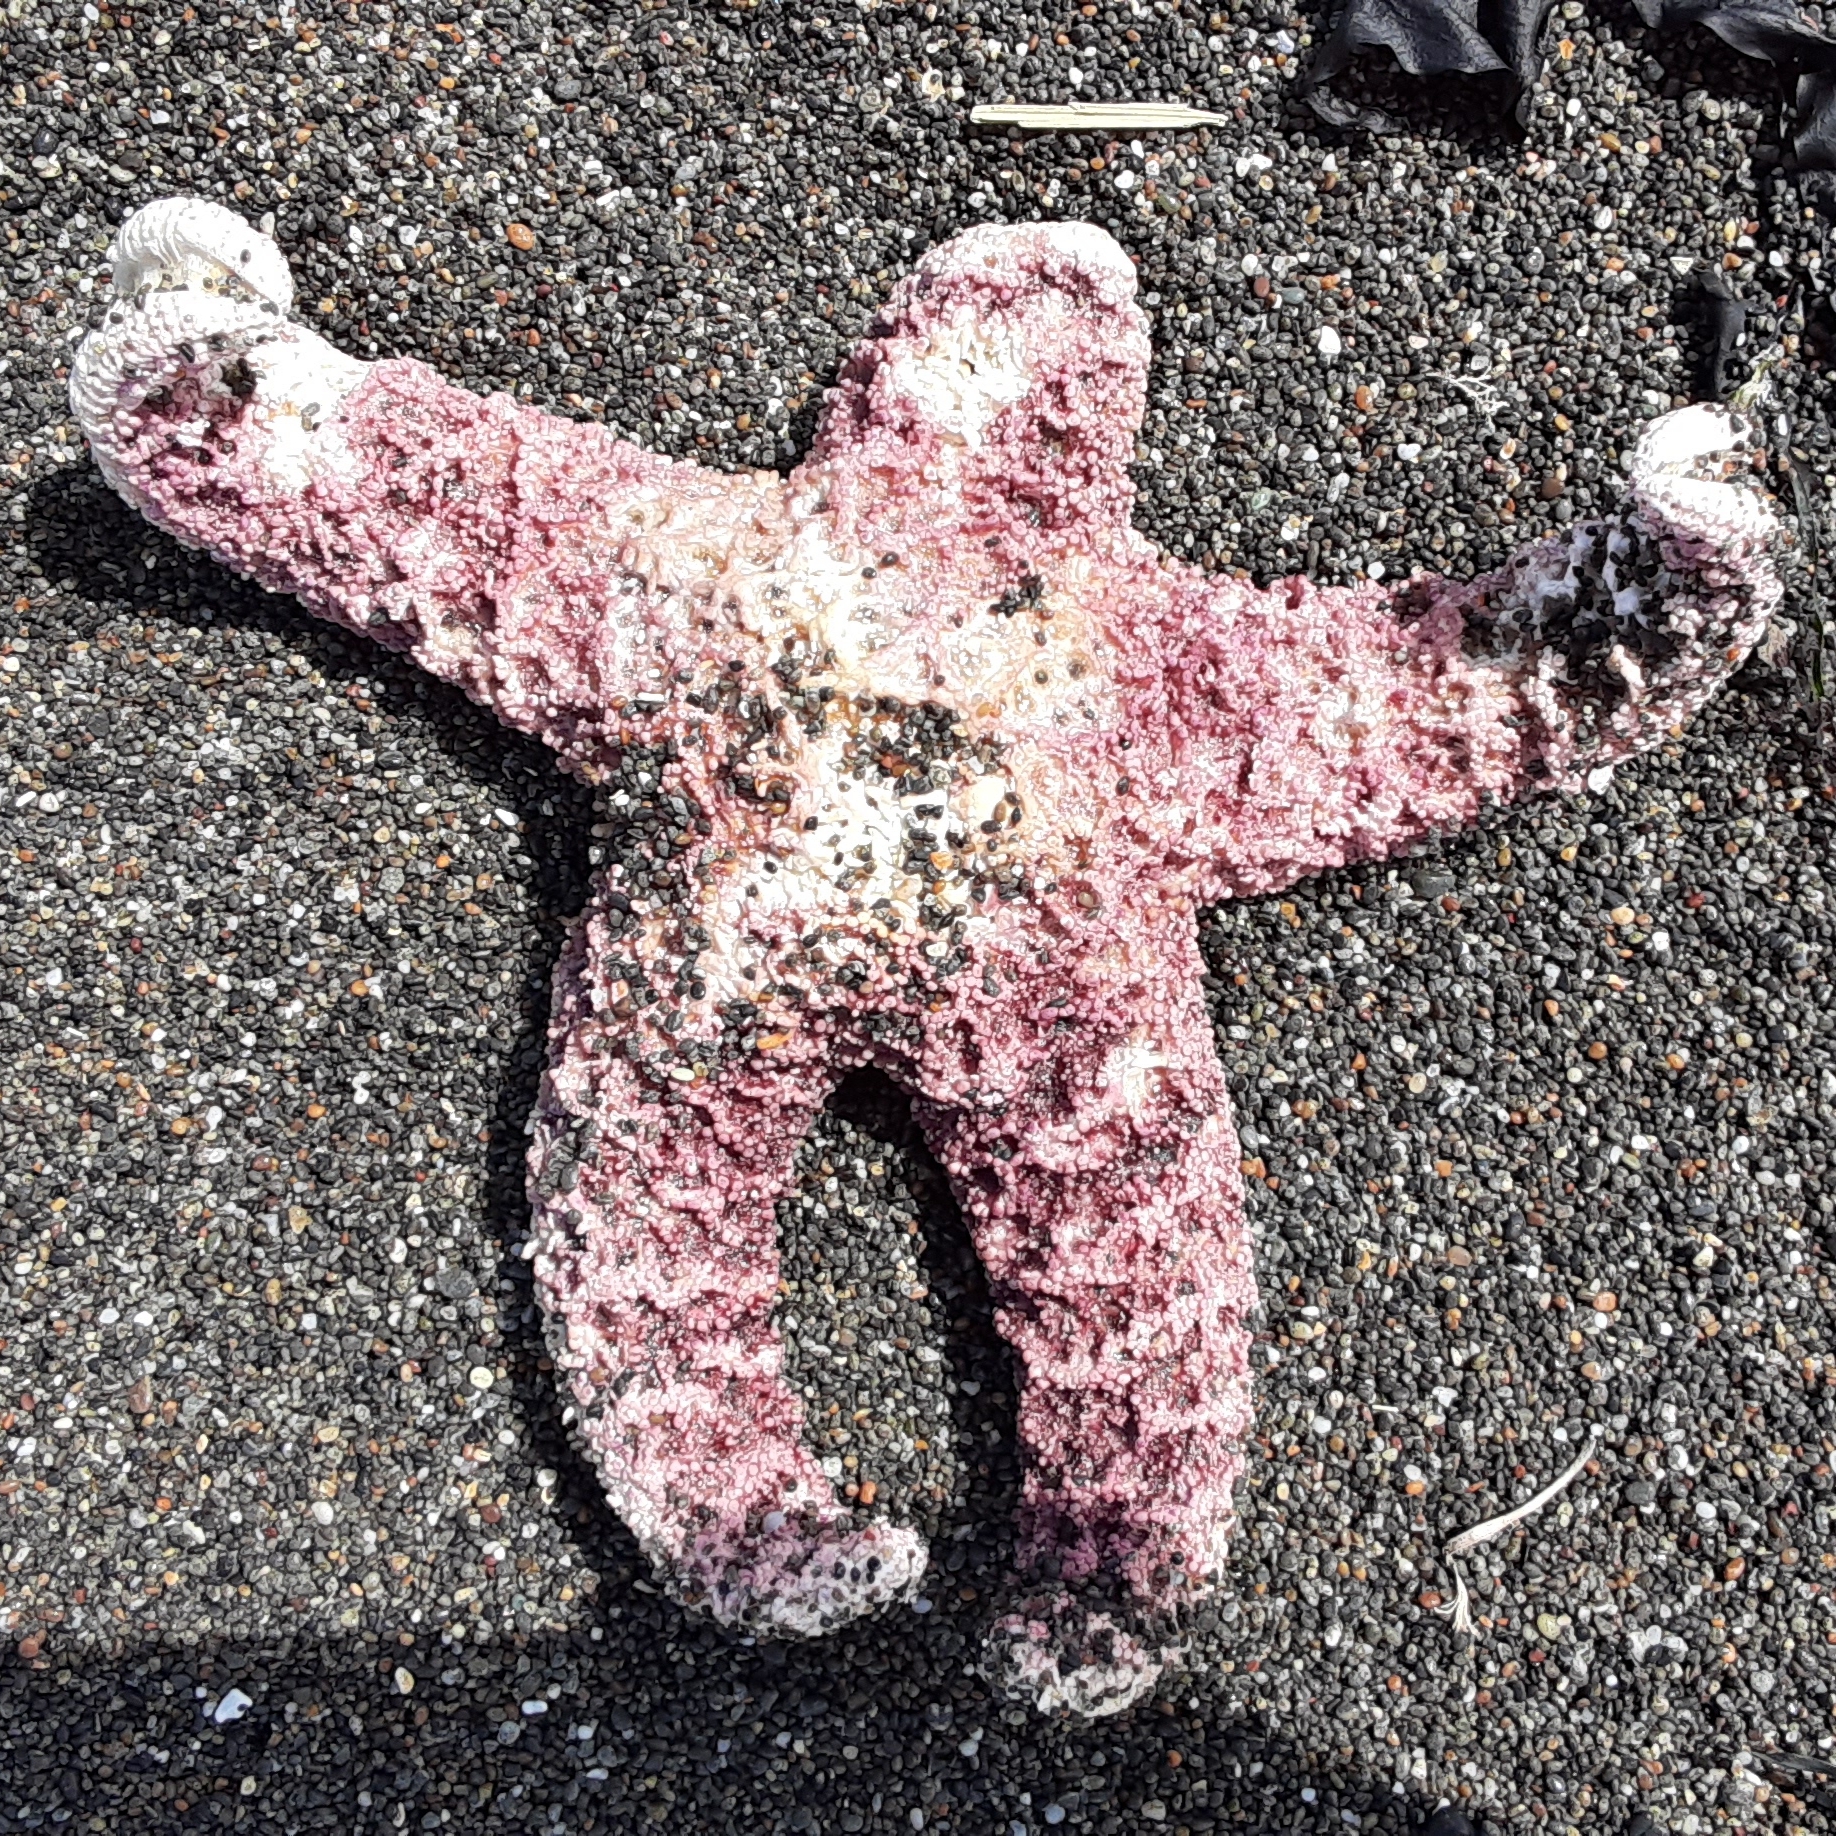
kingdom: Animalia
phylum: Echinodermata
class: Asteroidea
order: Forcipulatida
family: Asteriidae
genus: Pisaster
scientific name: Pisaster ochraceus
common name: Ochre stars
